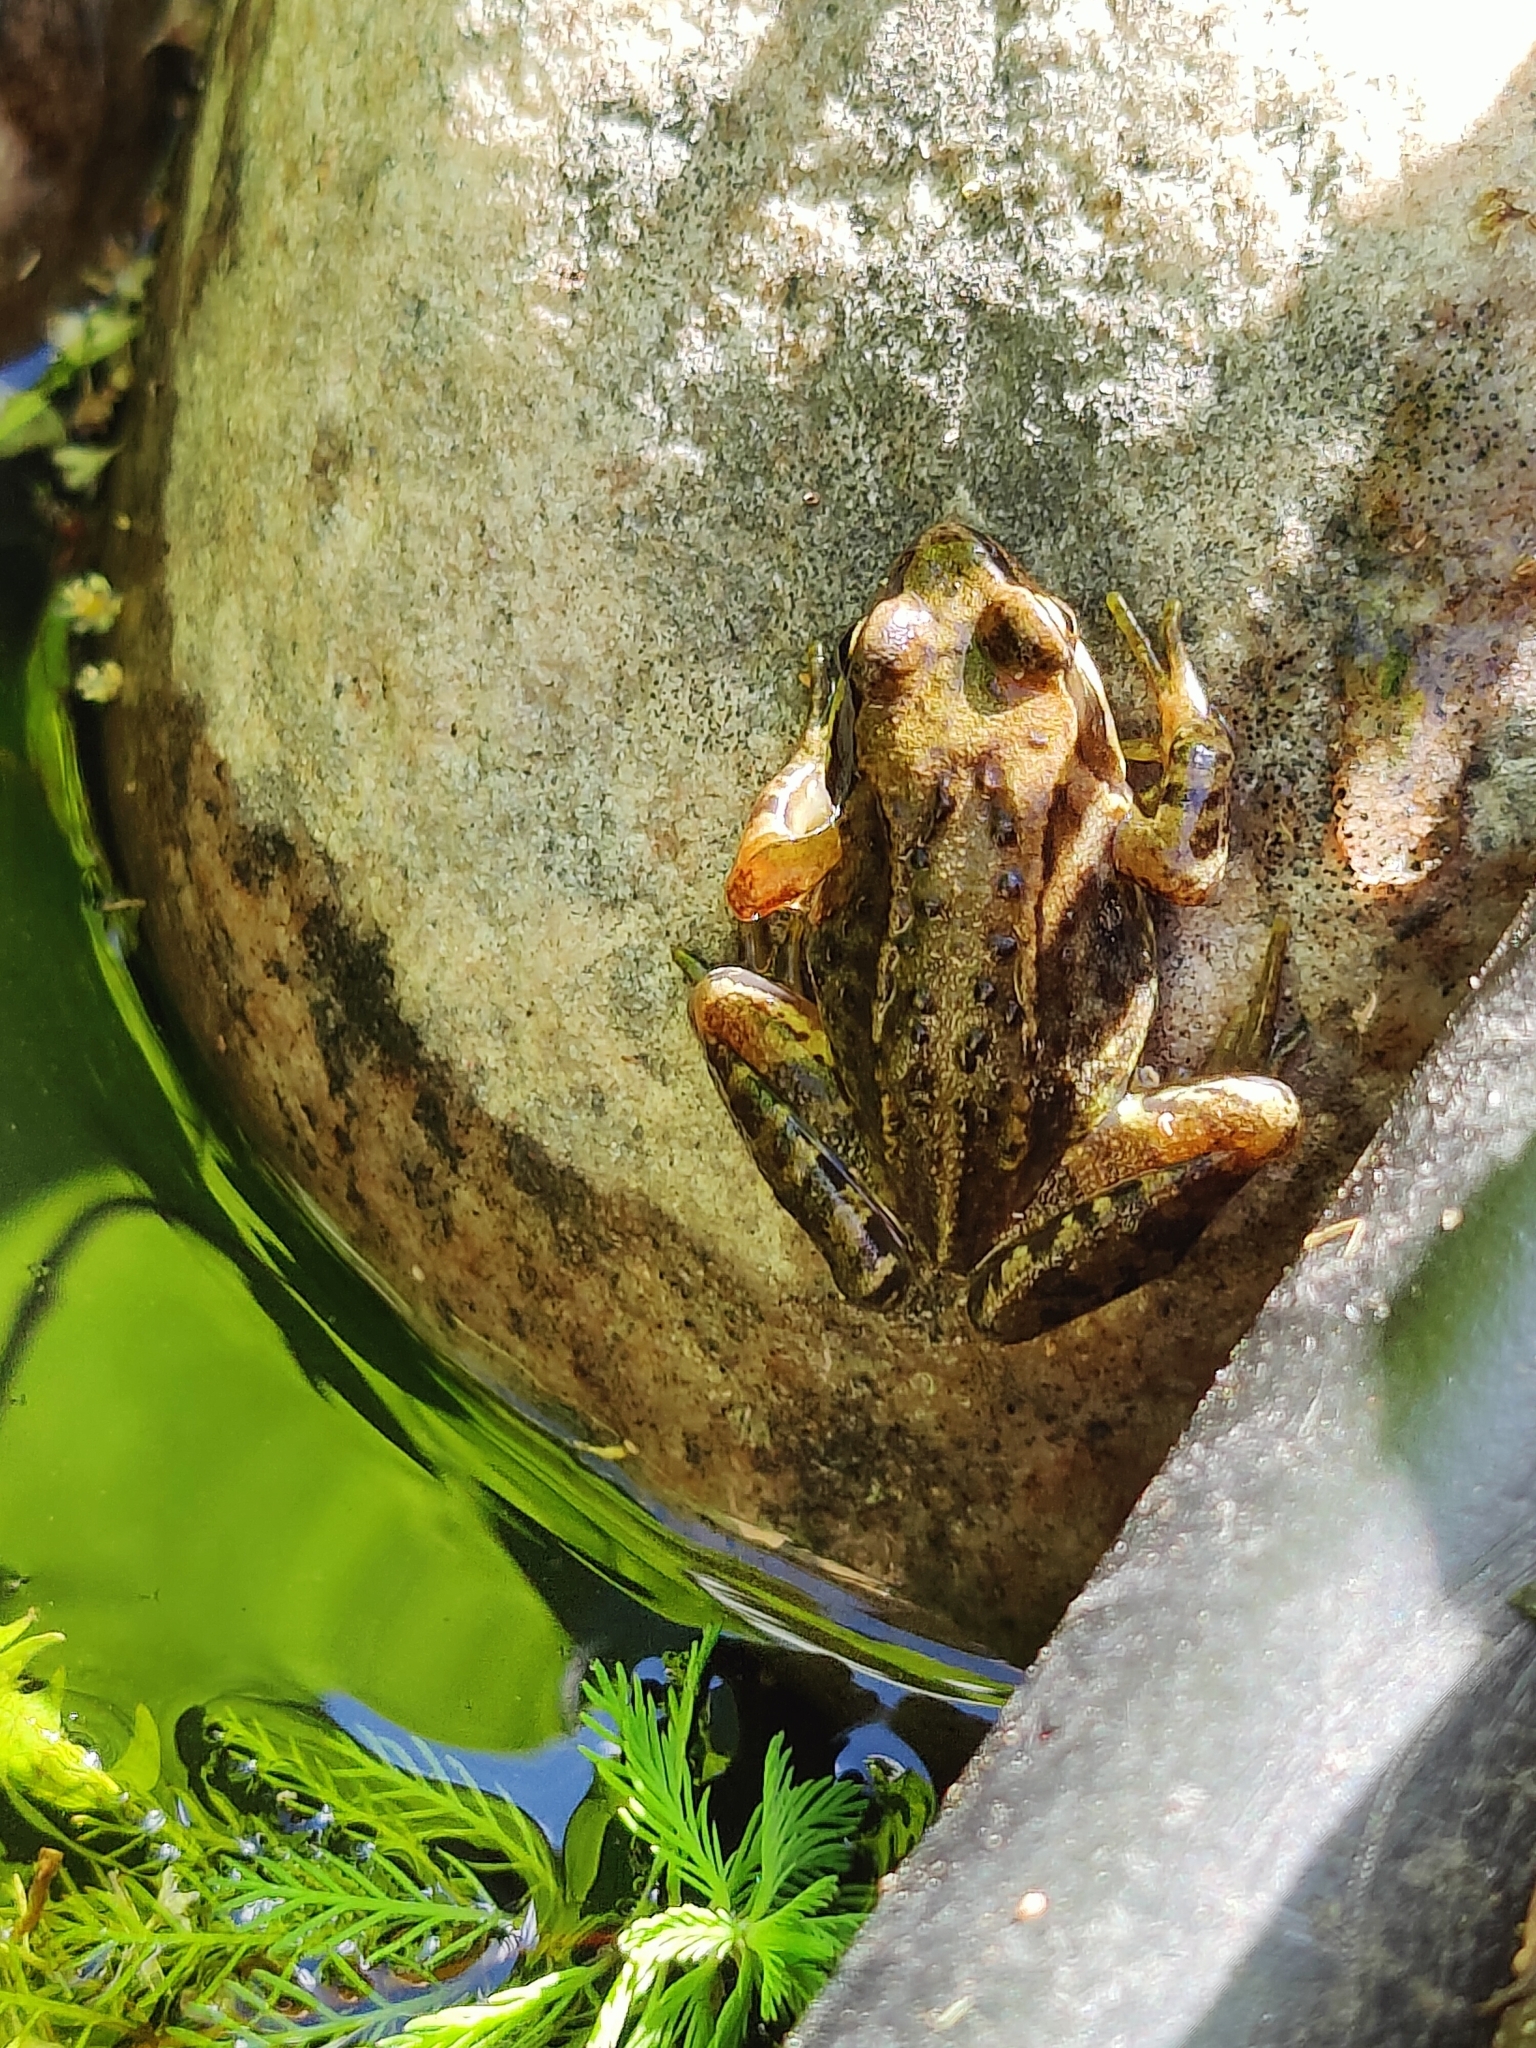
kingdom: Animalia
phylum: Chordata
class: Amphibia
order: Anura
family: Ranidae
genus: Rana
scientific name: Rana temporaria
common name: Common frog
